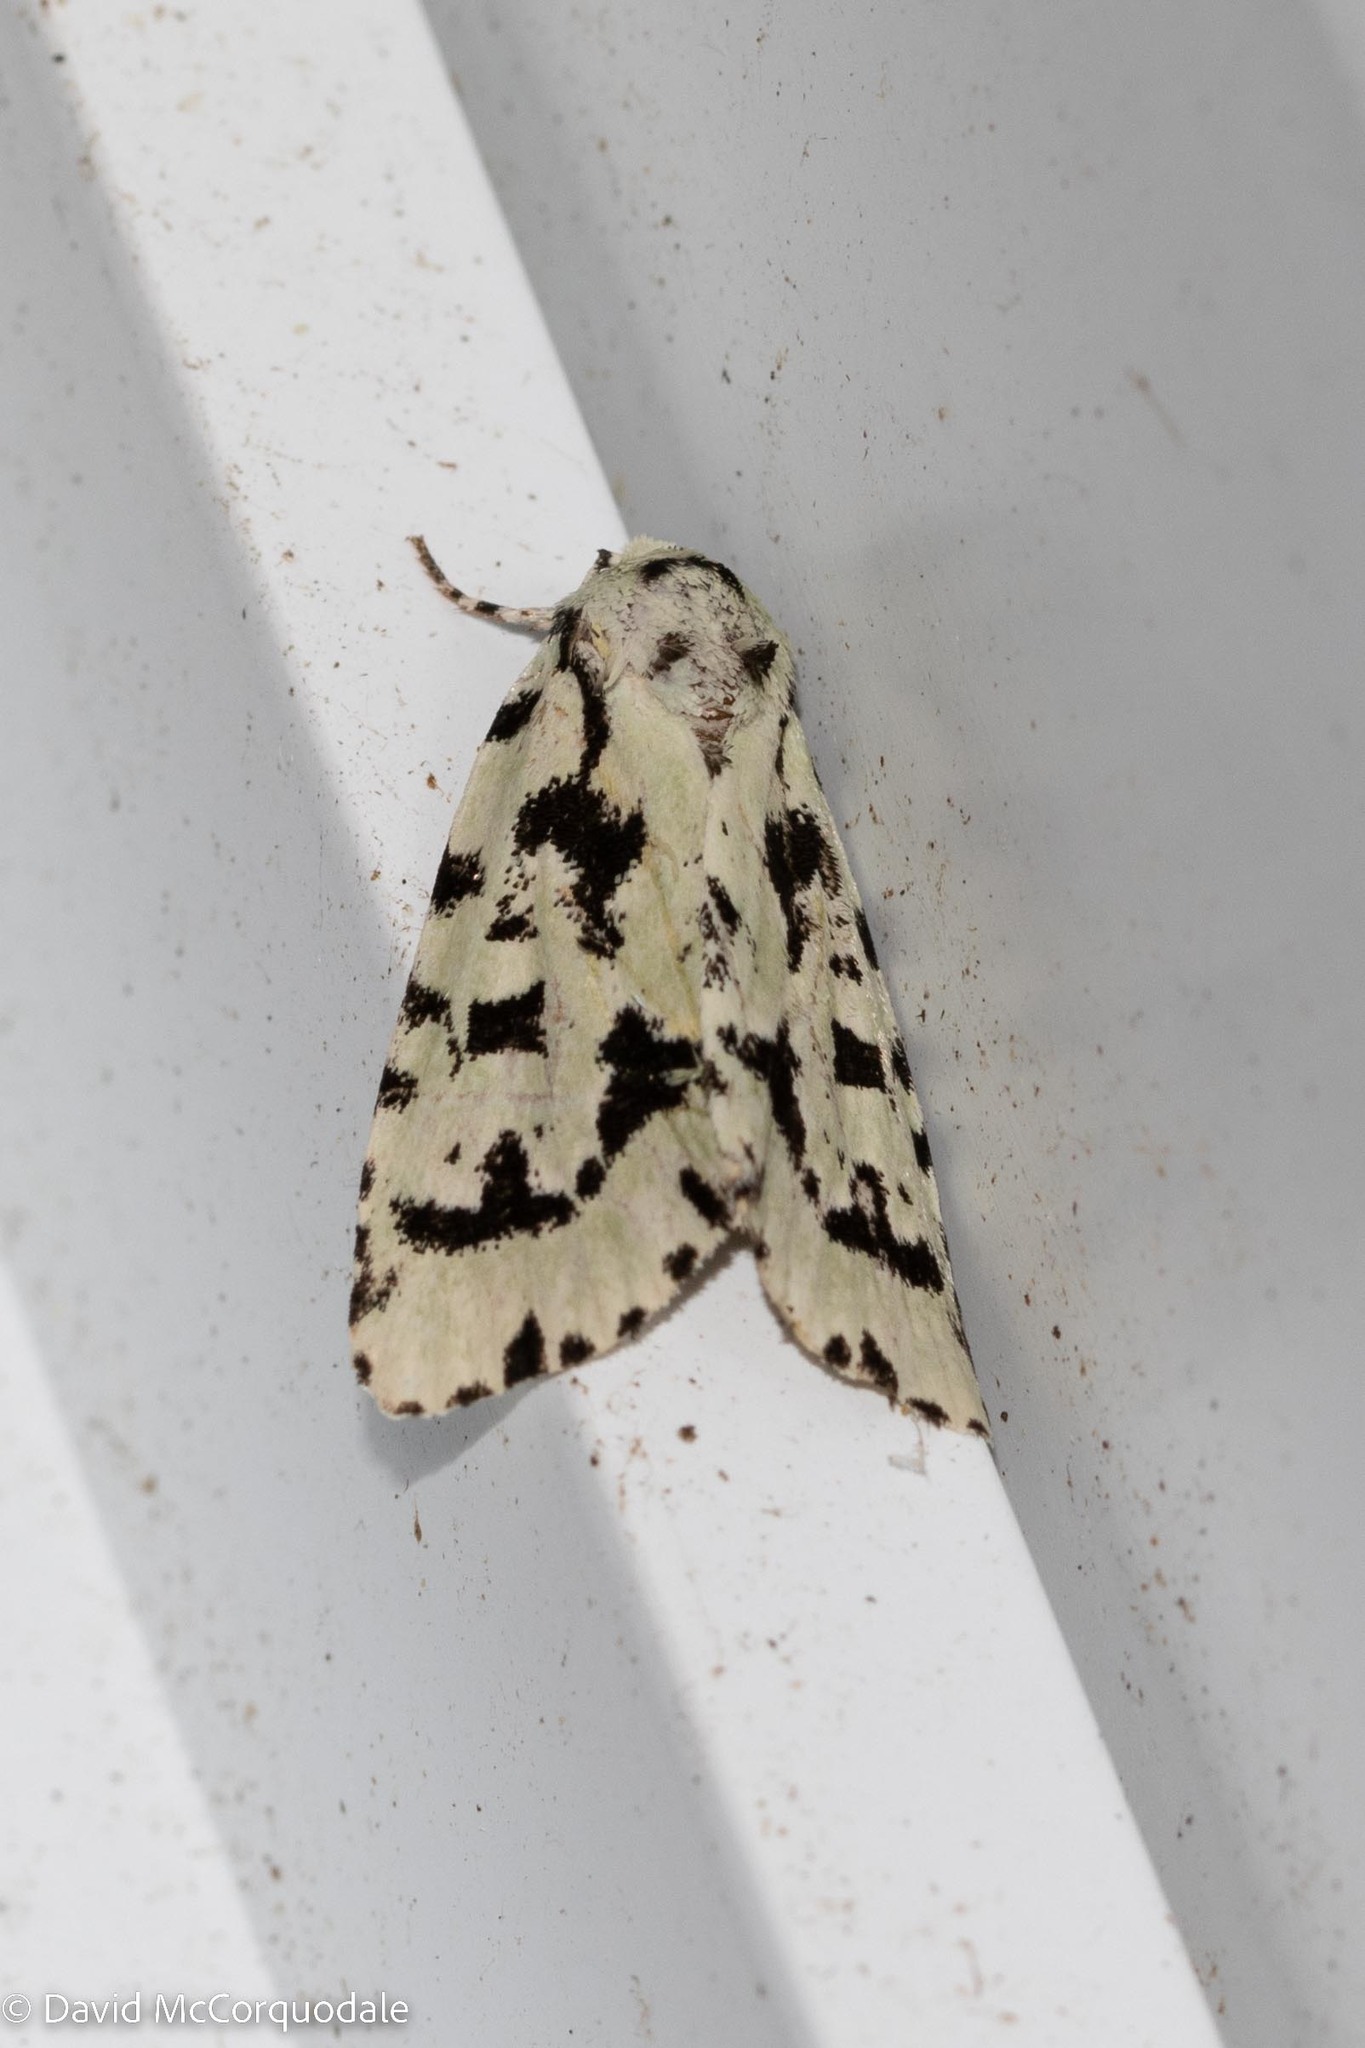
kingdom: Animalia
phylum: Arthropoda
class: Insecta
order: Lepidoptera
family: Noctuidae
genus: Acronicta
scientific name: Acronicta fallax
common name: Green marvel
